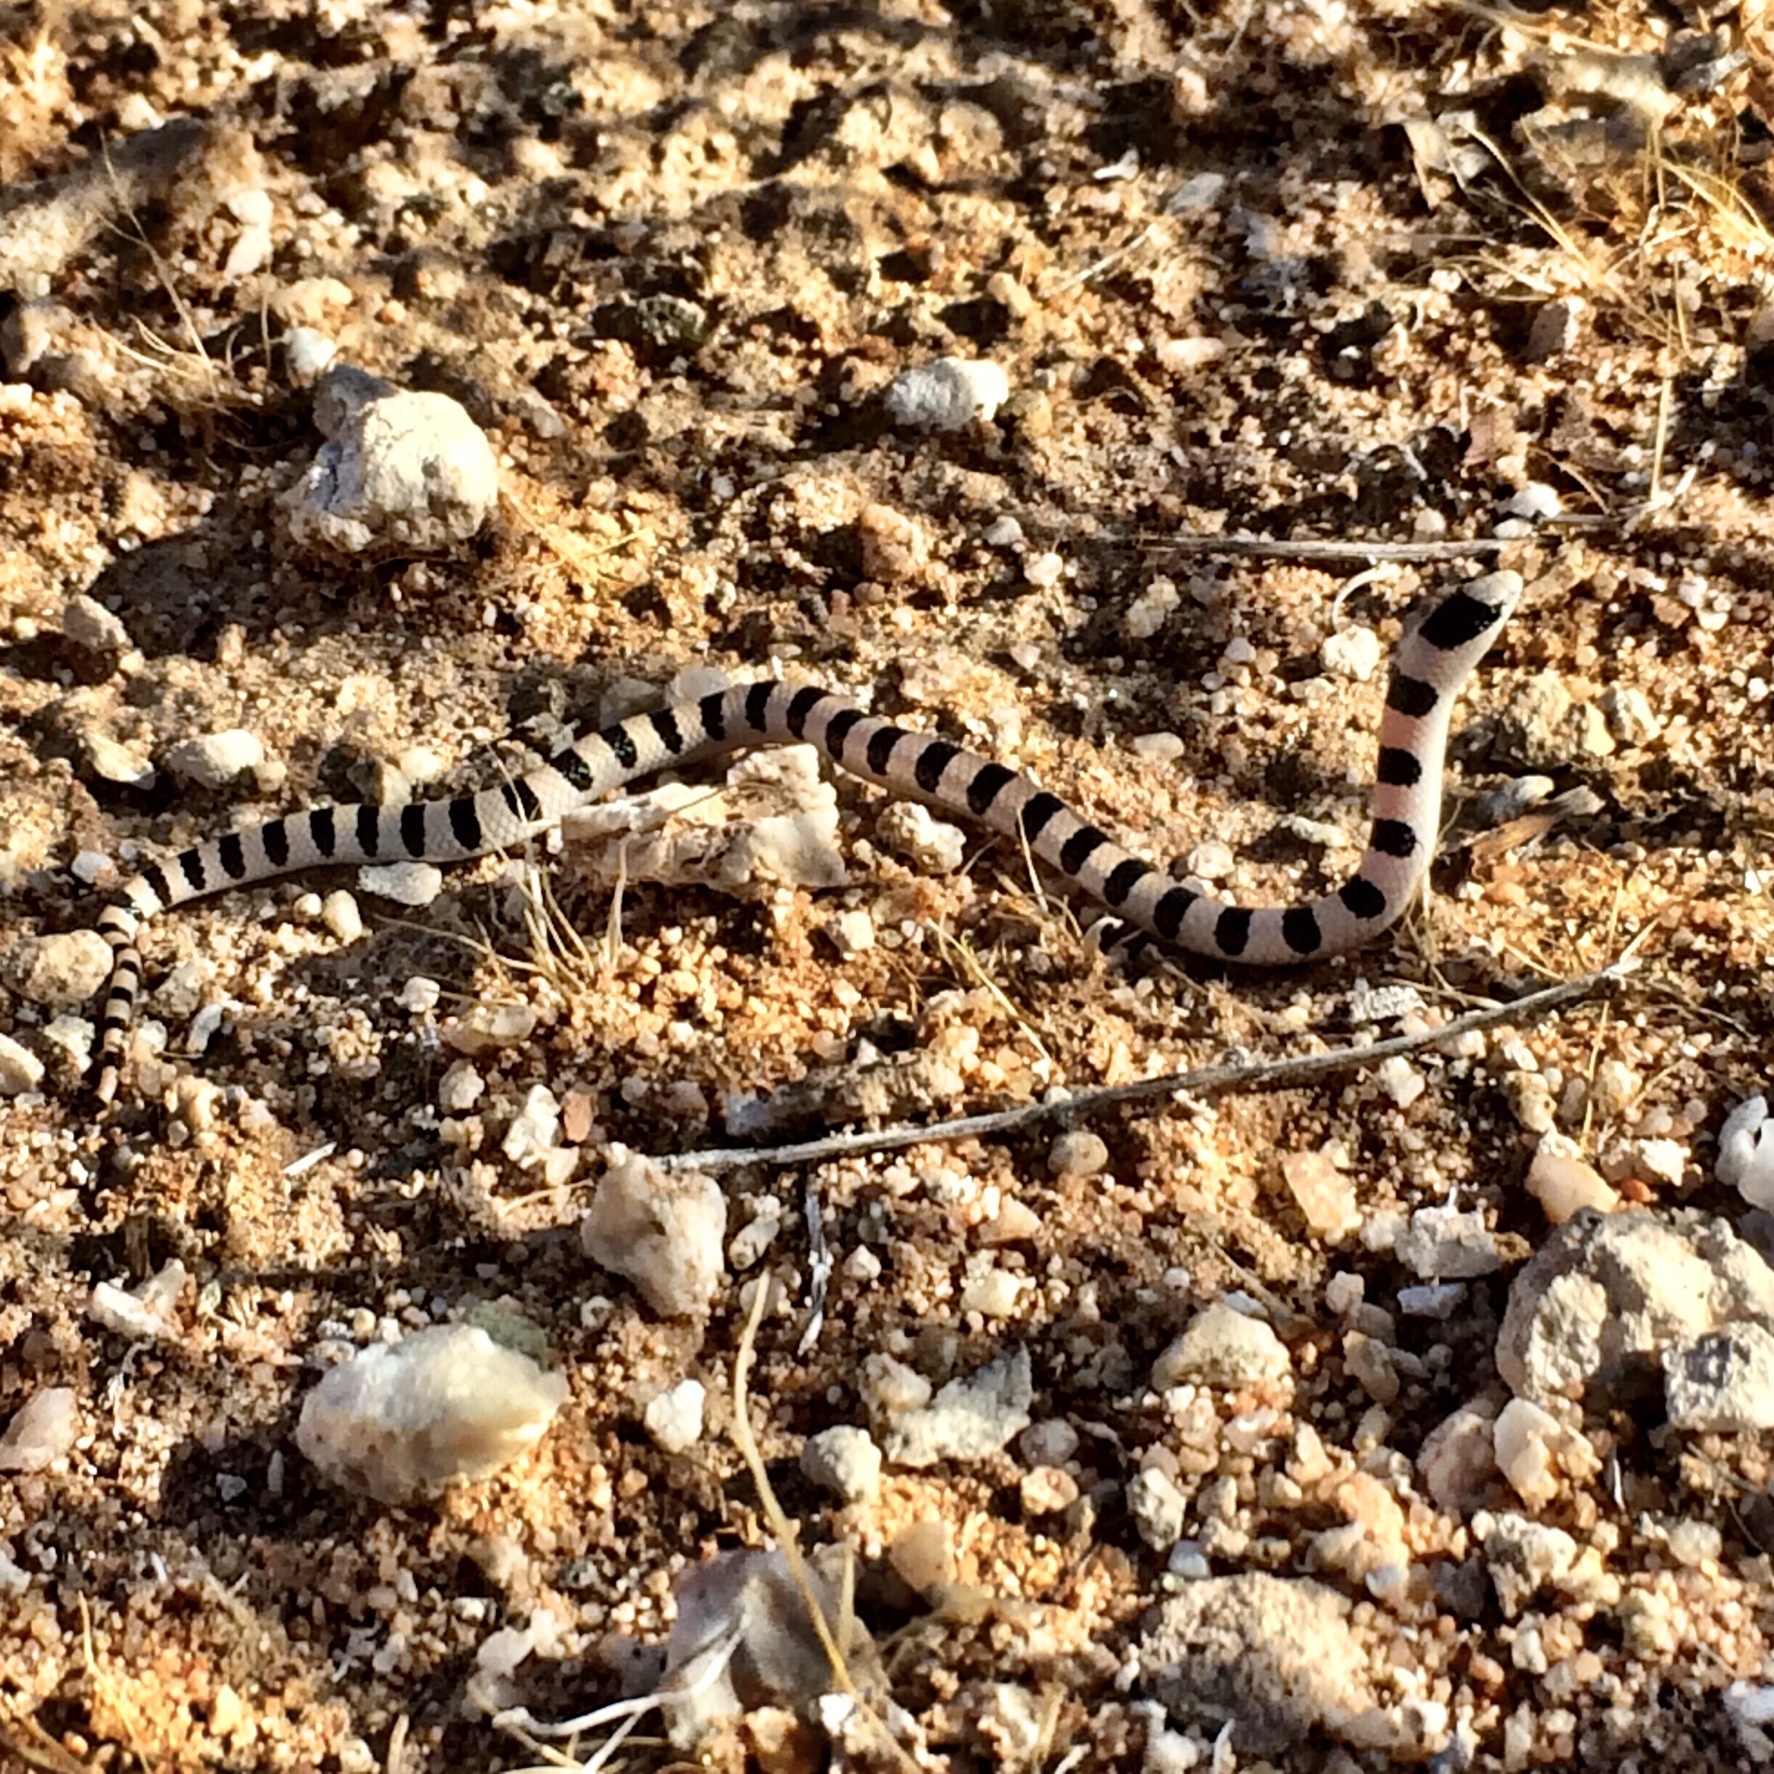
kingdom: Animalia
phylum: Chordata
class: Squamata
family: Colubridae
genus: Sonora
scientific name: Sonora occipitalis
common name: Western shovelnose snake
